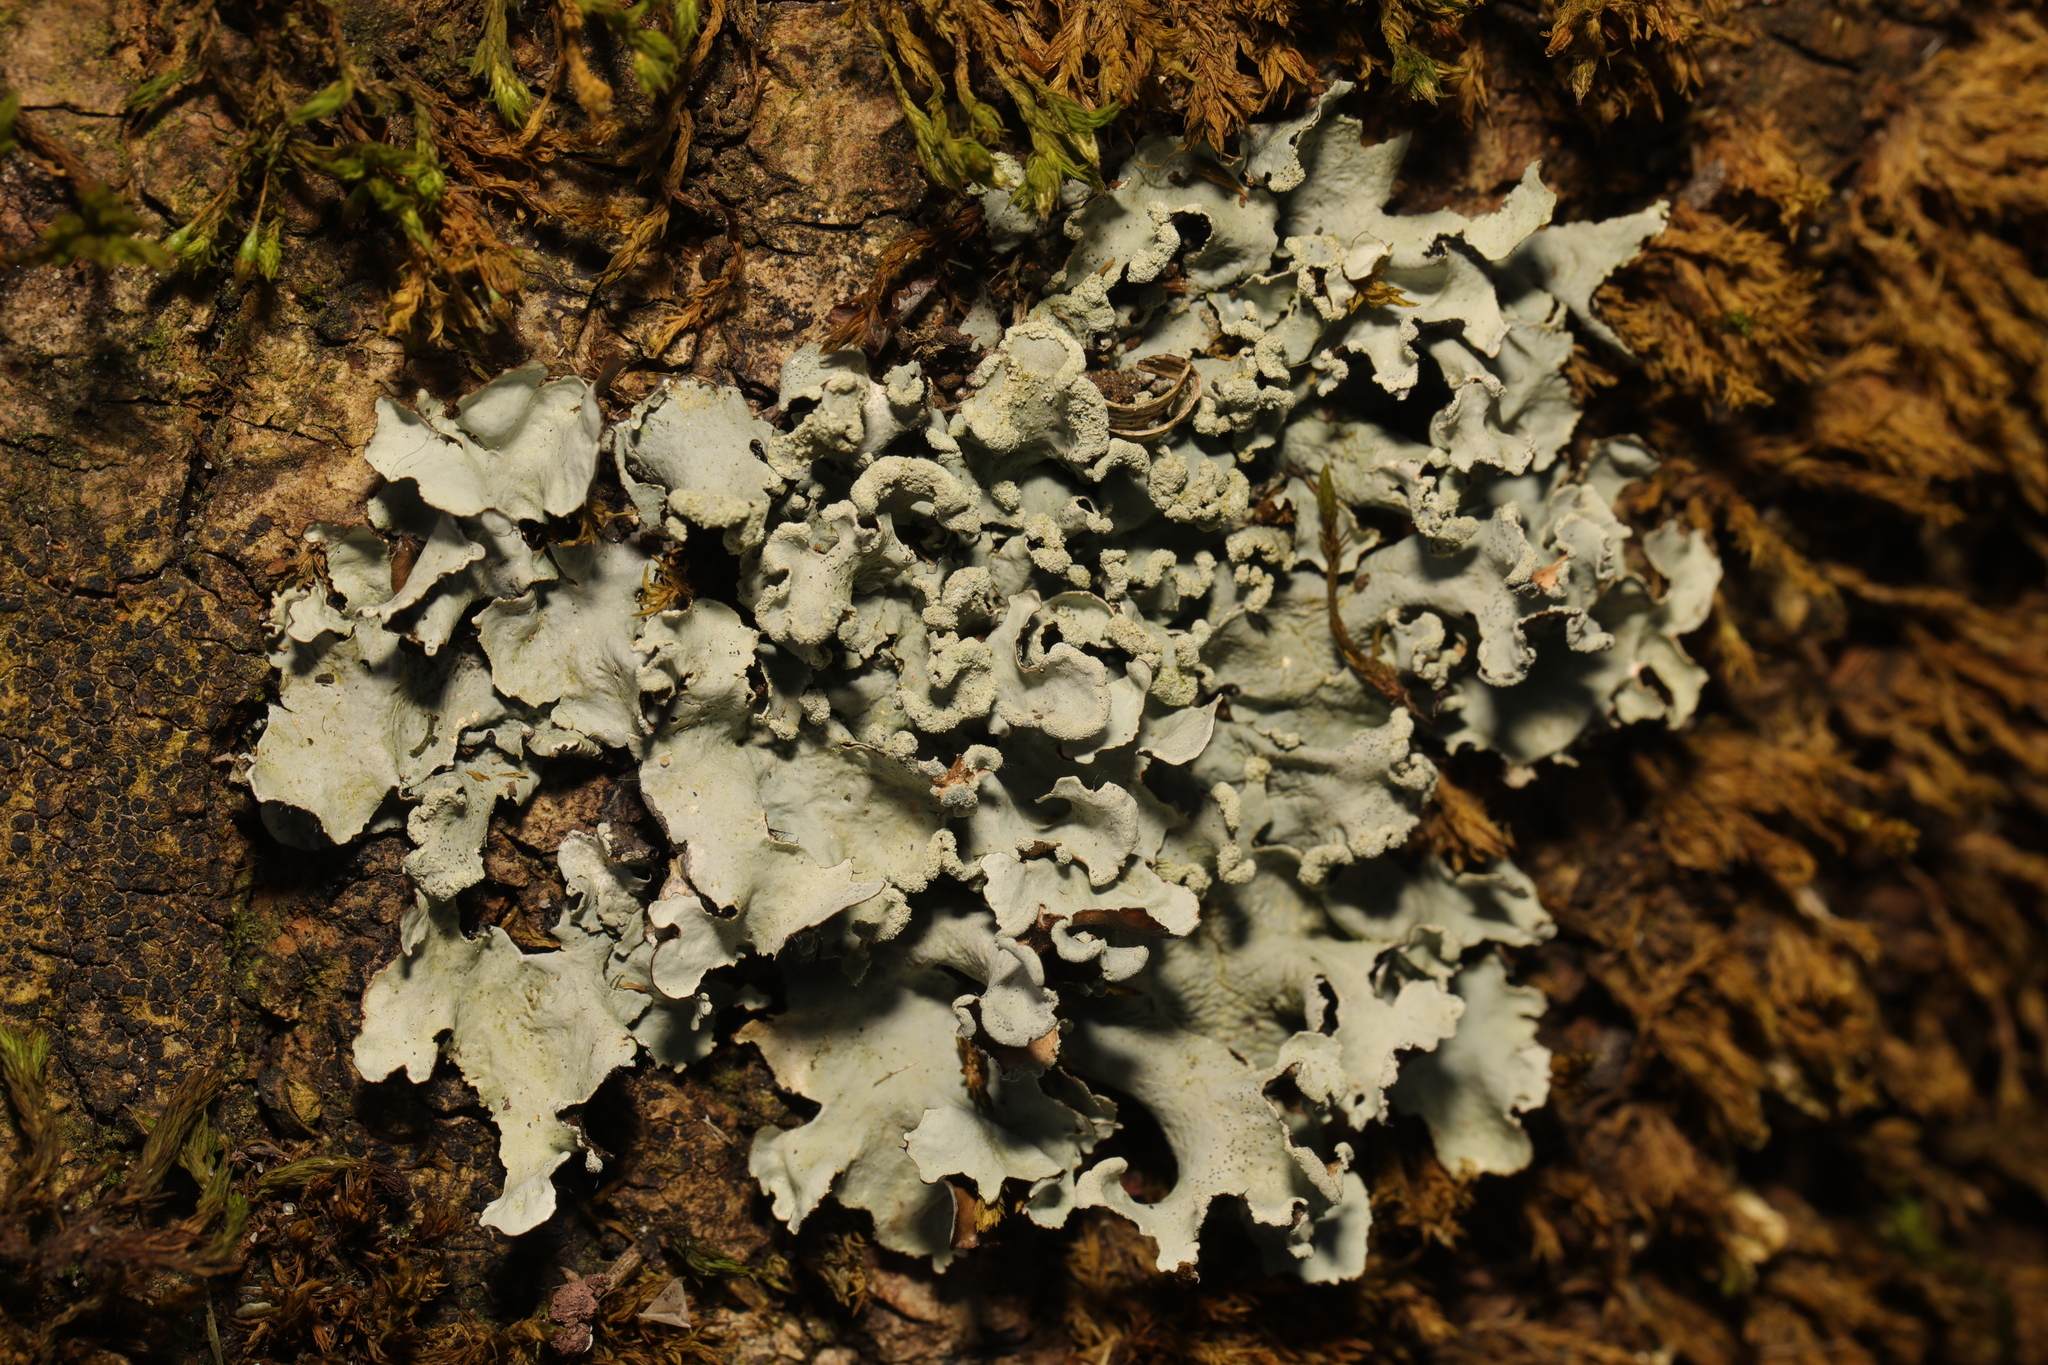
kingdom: Fungi
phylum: Ascomycota
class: Lecanoromycetes
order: Lecanorales
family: Parmeliaceae
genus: Parmotrema
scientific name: Parmotrema perlatum
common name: Black stone flower
